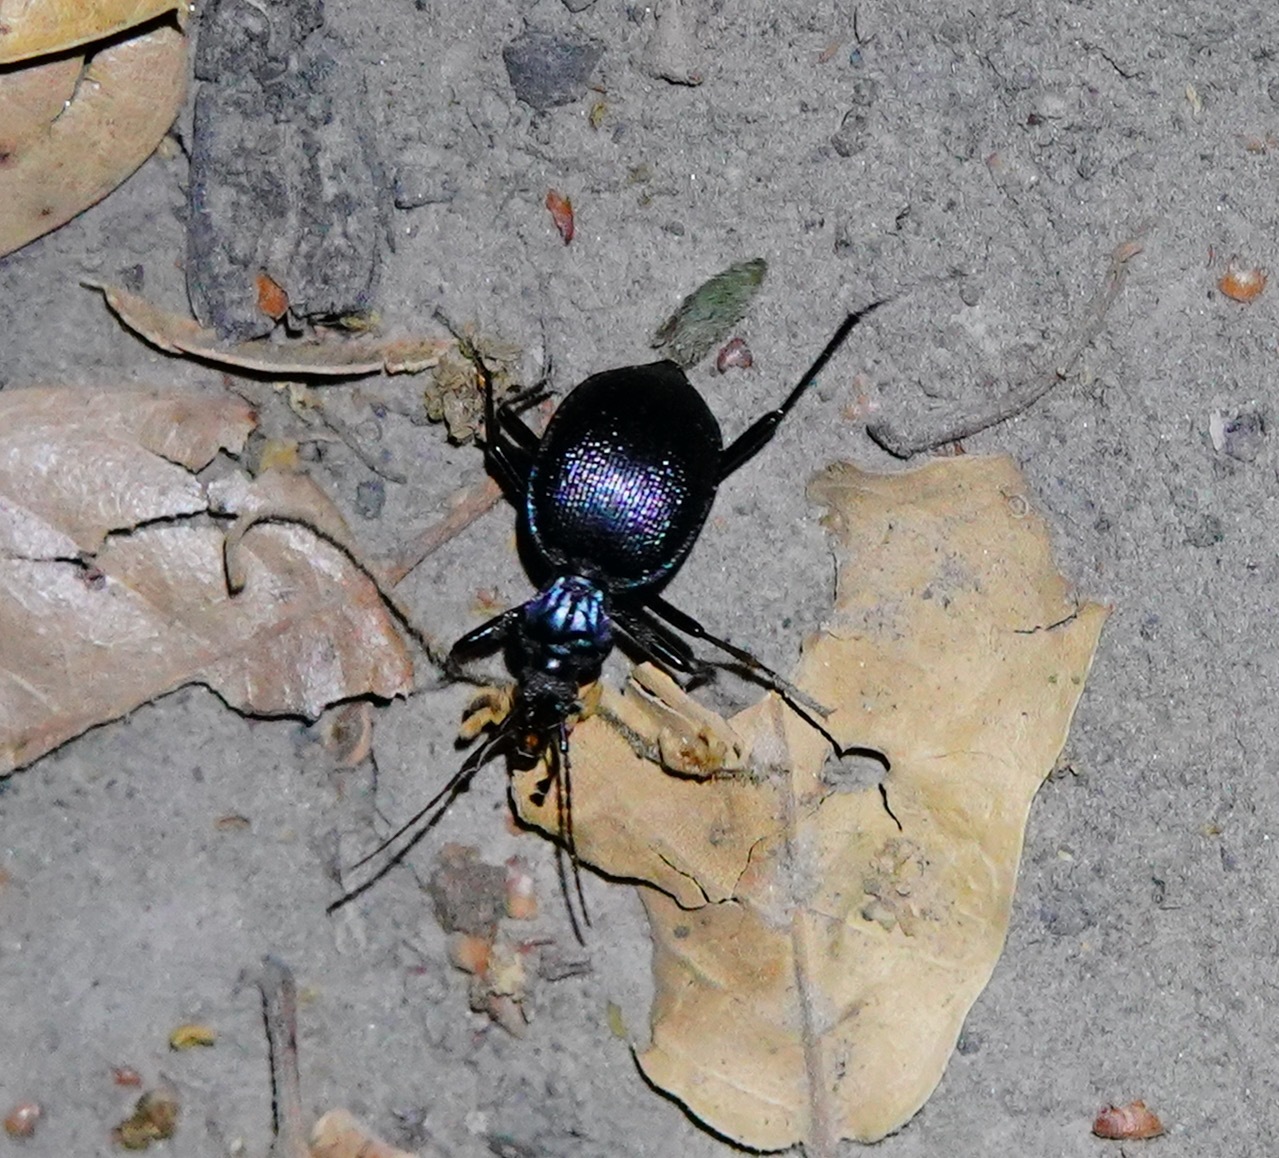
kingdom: Animalia
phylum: Arthropoda
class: Insecta
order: Coleoptera
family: Carabidae
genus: Scaphinotus
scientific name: Scaphinotus interruptus
